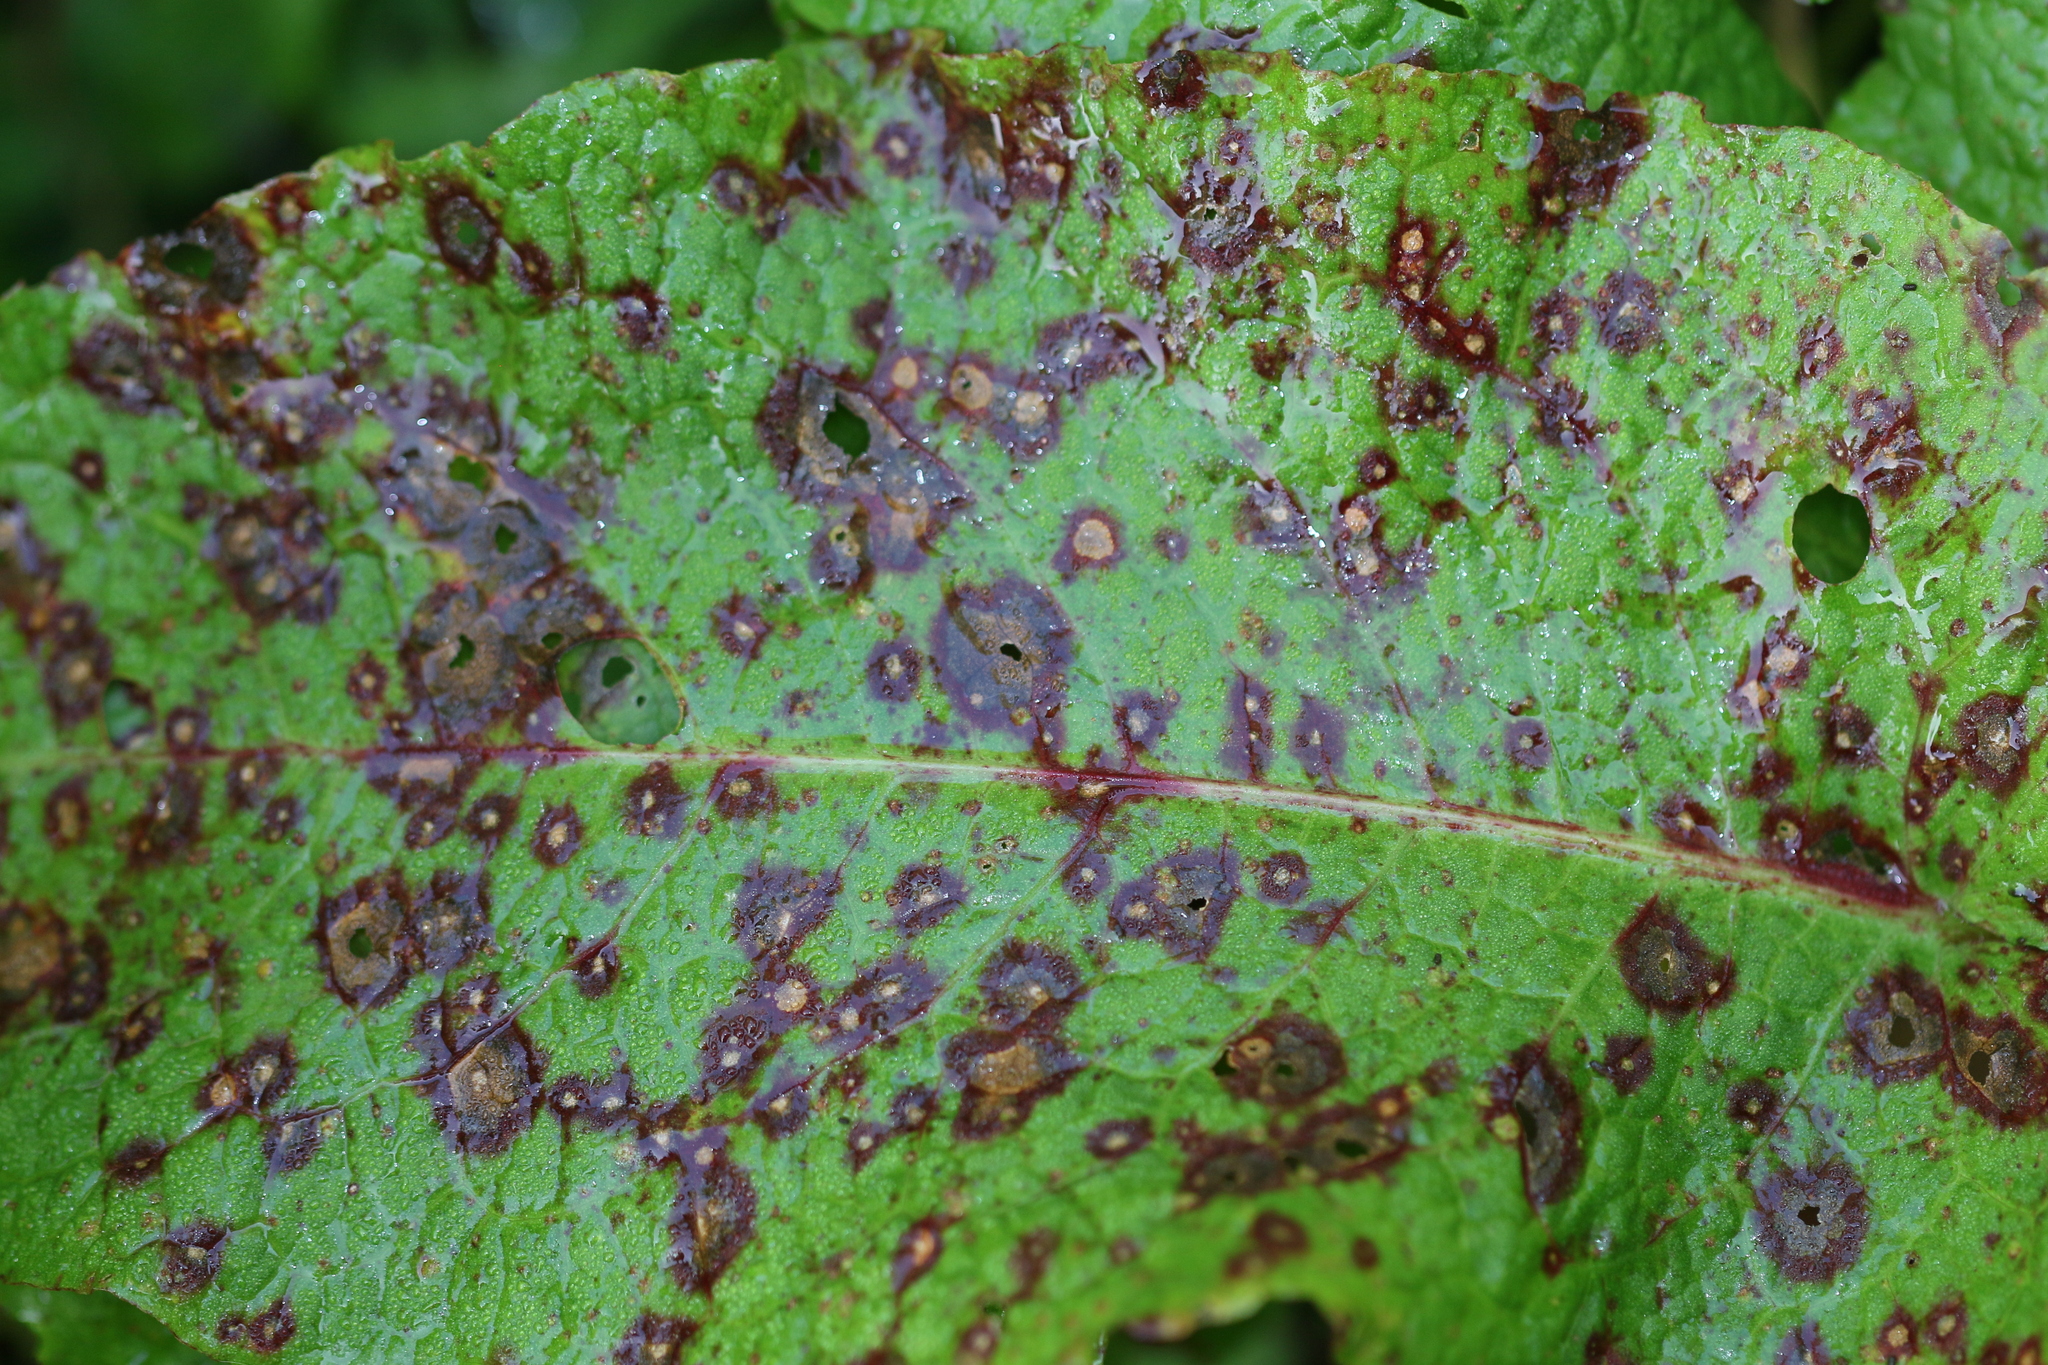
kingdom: Fungi
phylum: Ascomycota
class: Dothideomycetes
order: Mycosphaerellales
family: Mycosphaerellaceae
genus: Ramularia
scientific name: Ramularia rubella
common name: Red dock spot
